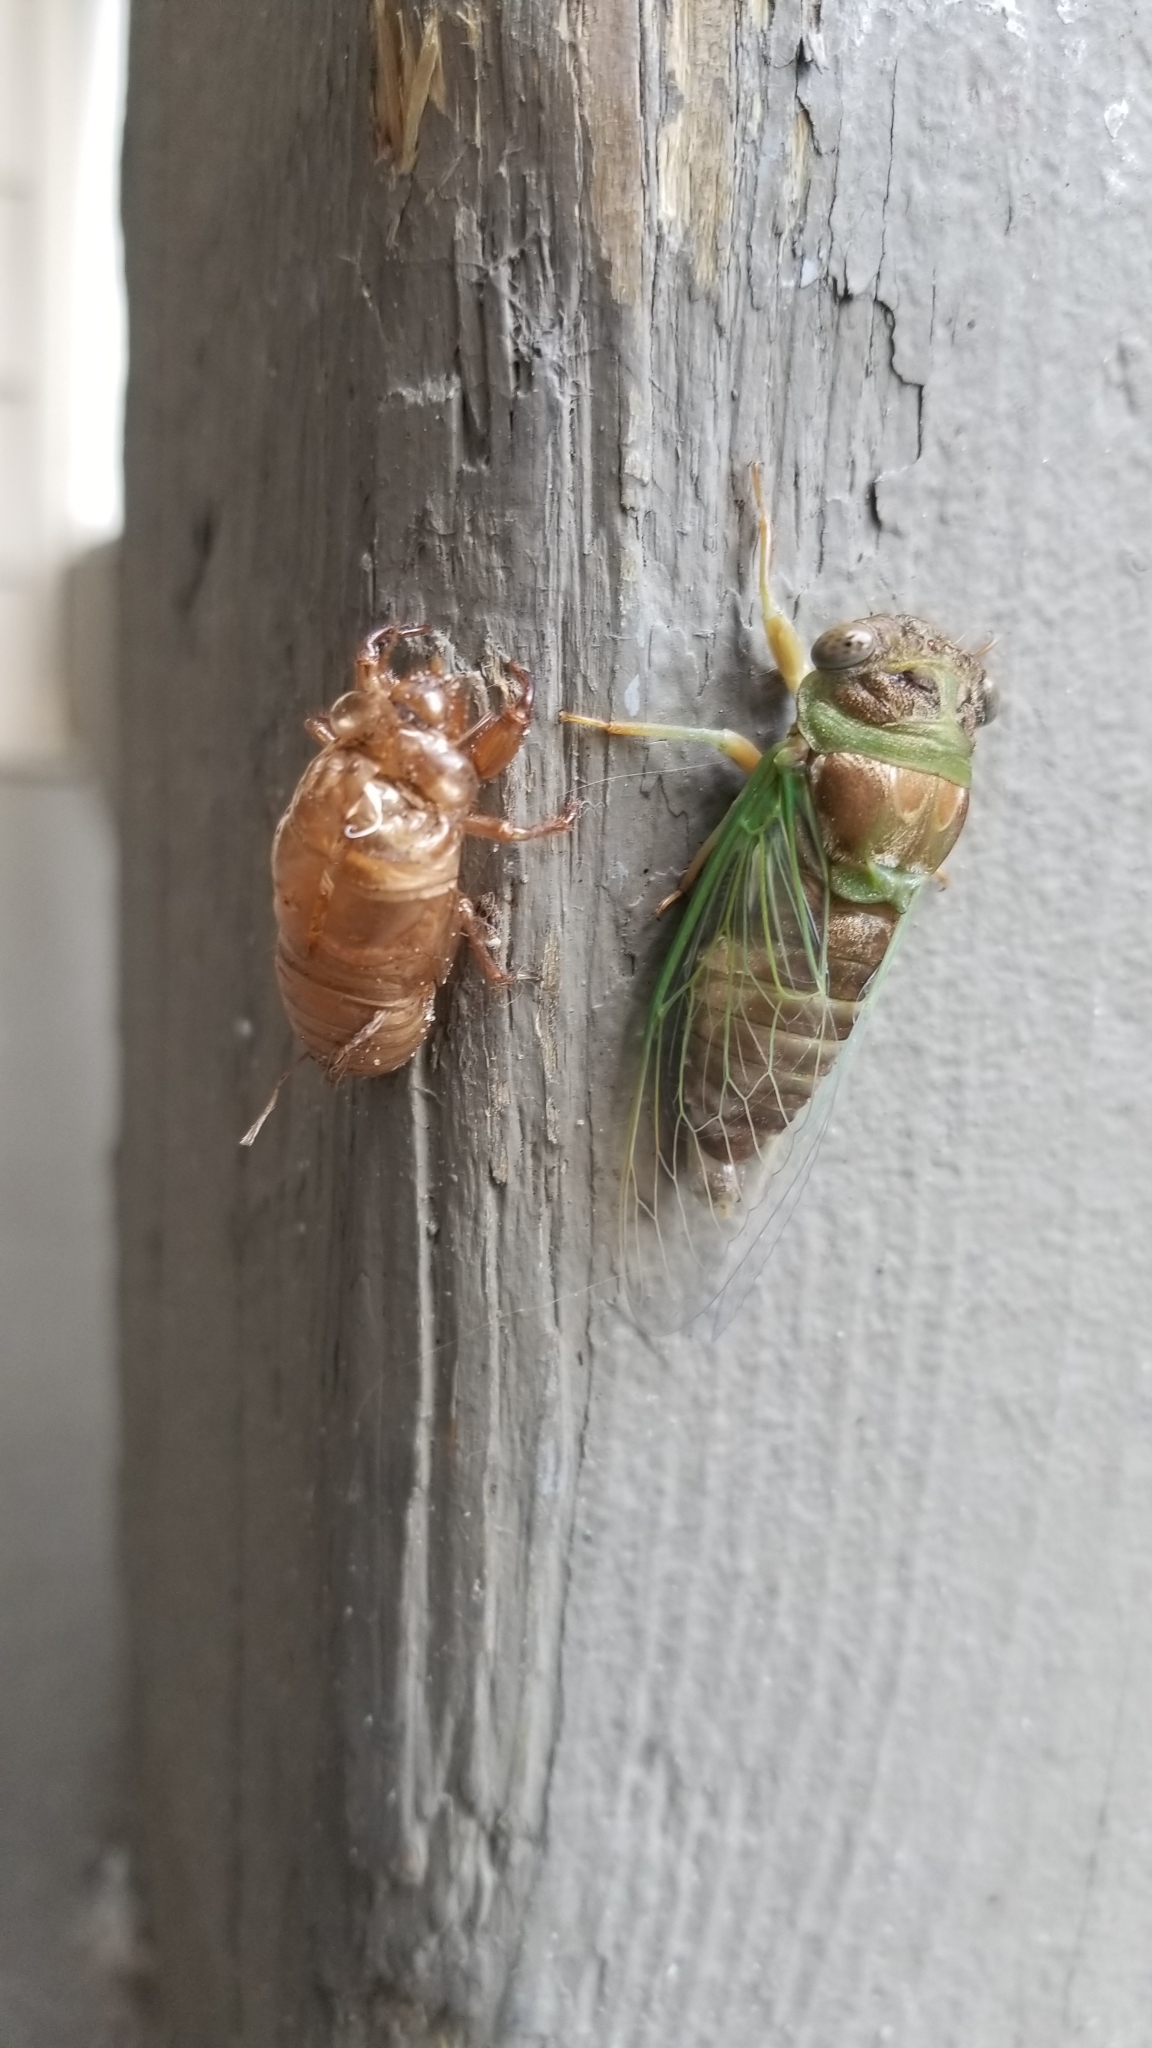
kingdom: Animalia
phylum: Arthropoda
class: Insecta
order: Hemiptera
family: Cicadidae
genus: Neotibicen
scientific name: Neotibicen davisi
